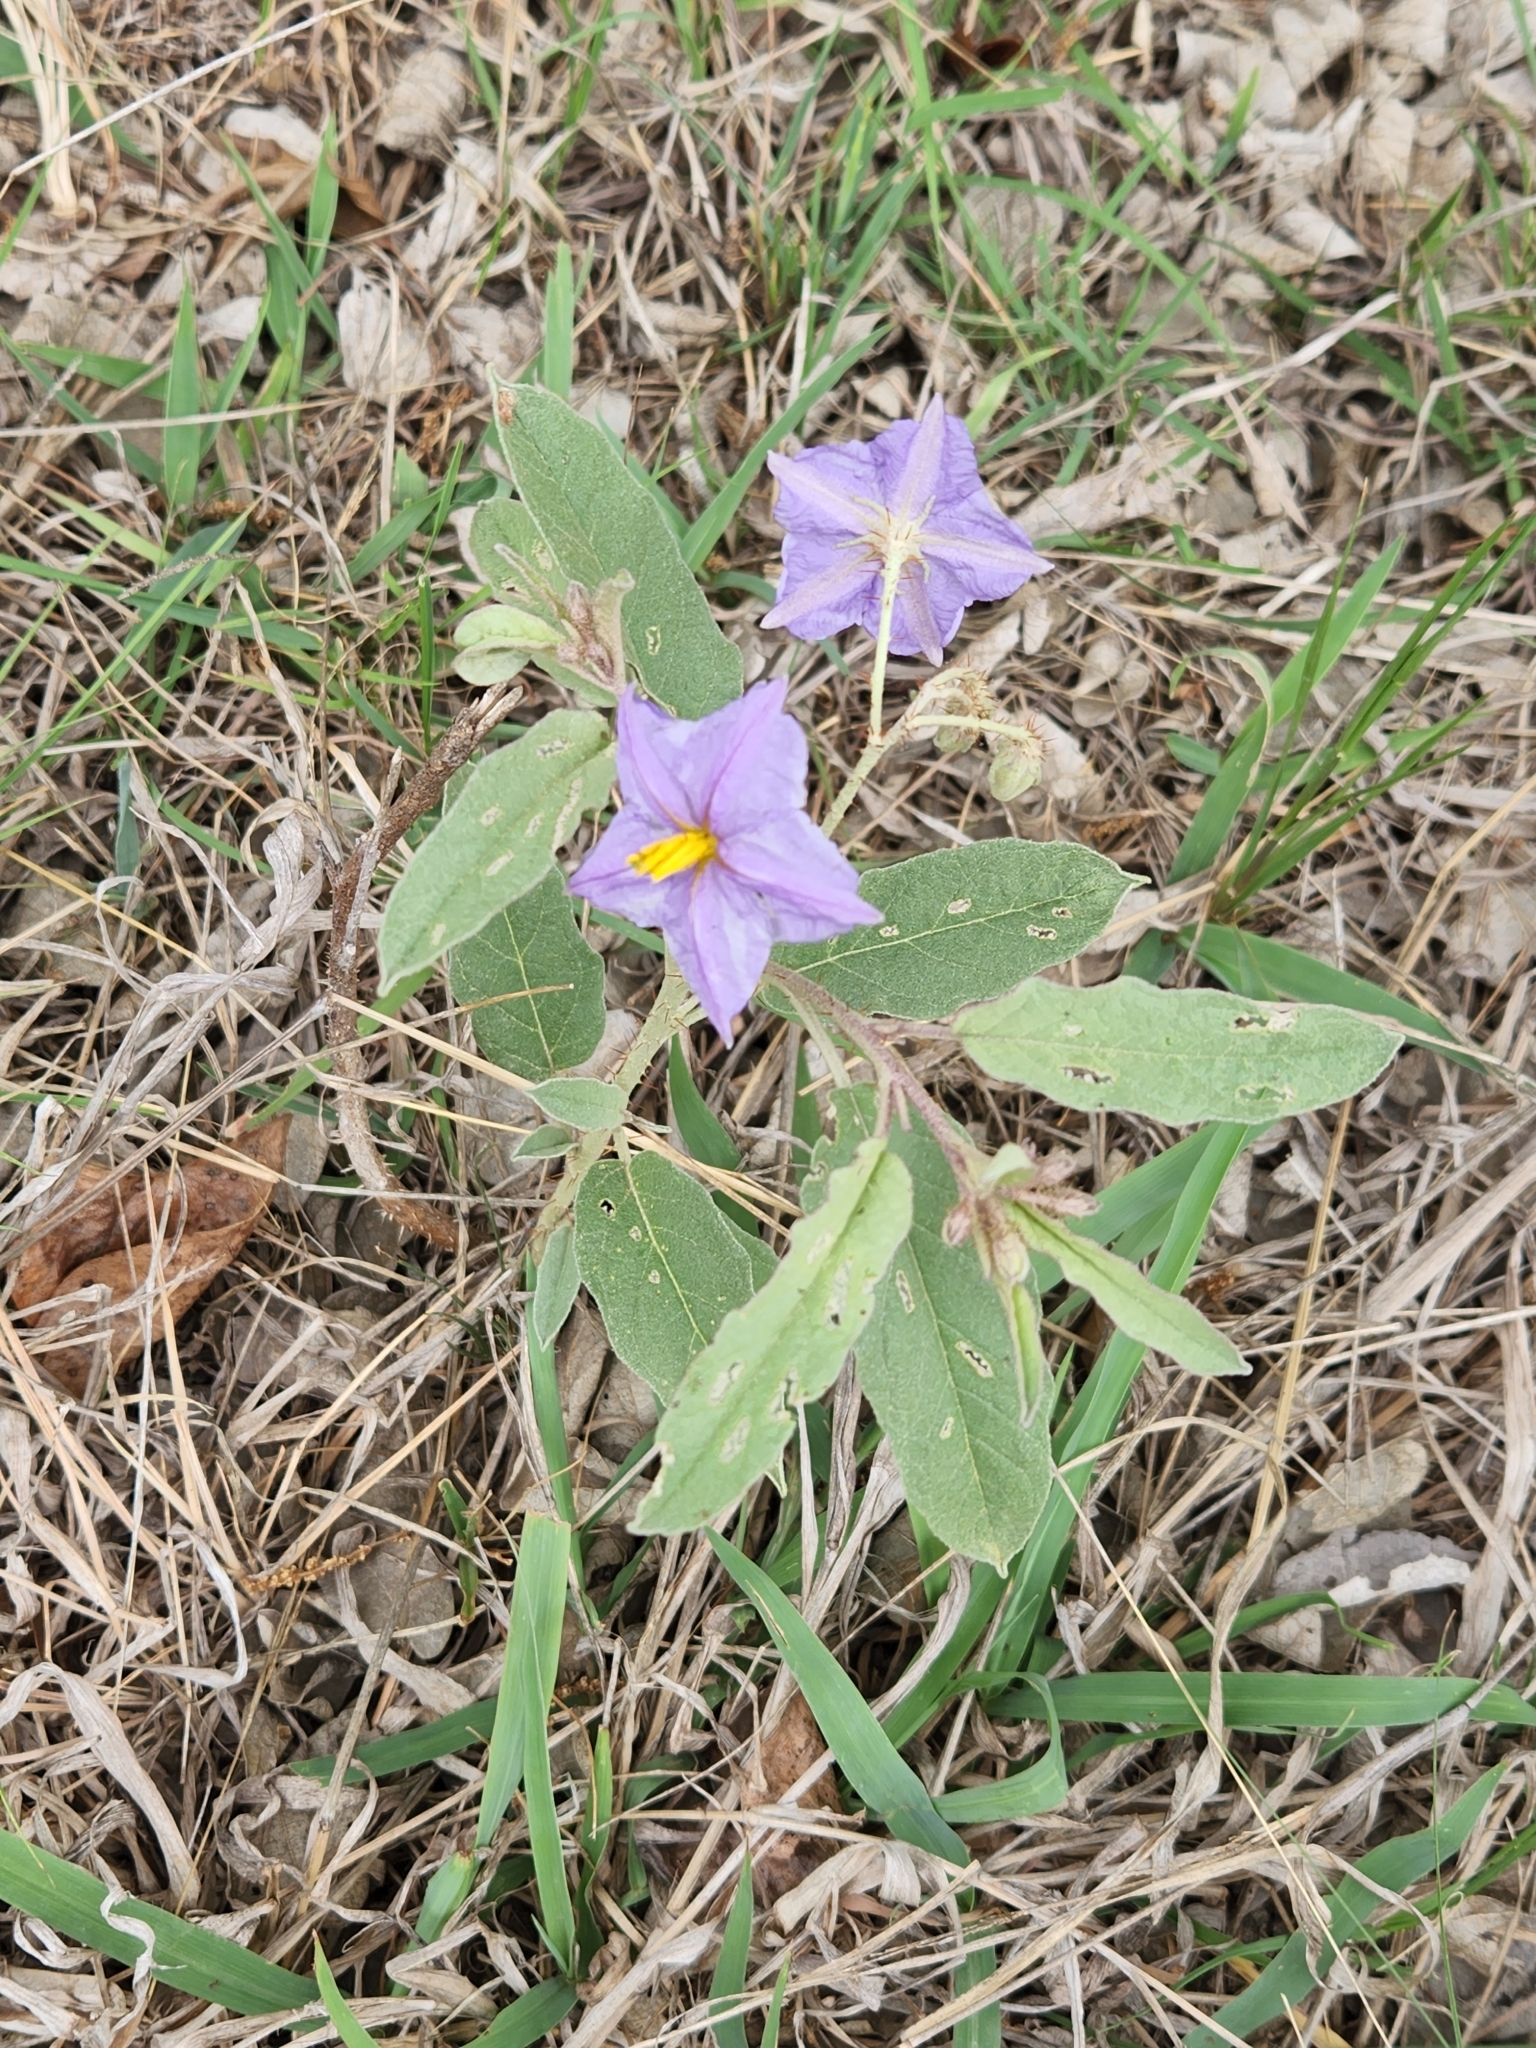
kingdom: Plantae
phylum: Tracheophyta
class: Magnoliopsida
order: Solanales
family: Solanaceae
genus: Solanum
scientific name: Solanum elaeagnifolium
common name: Silverleaf nightshade
